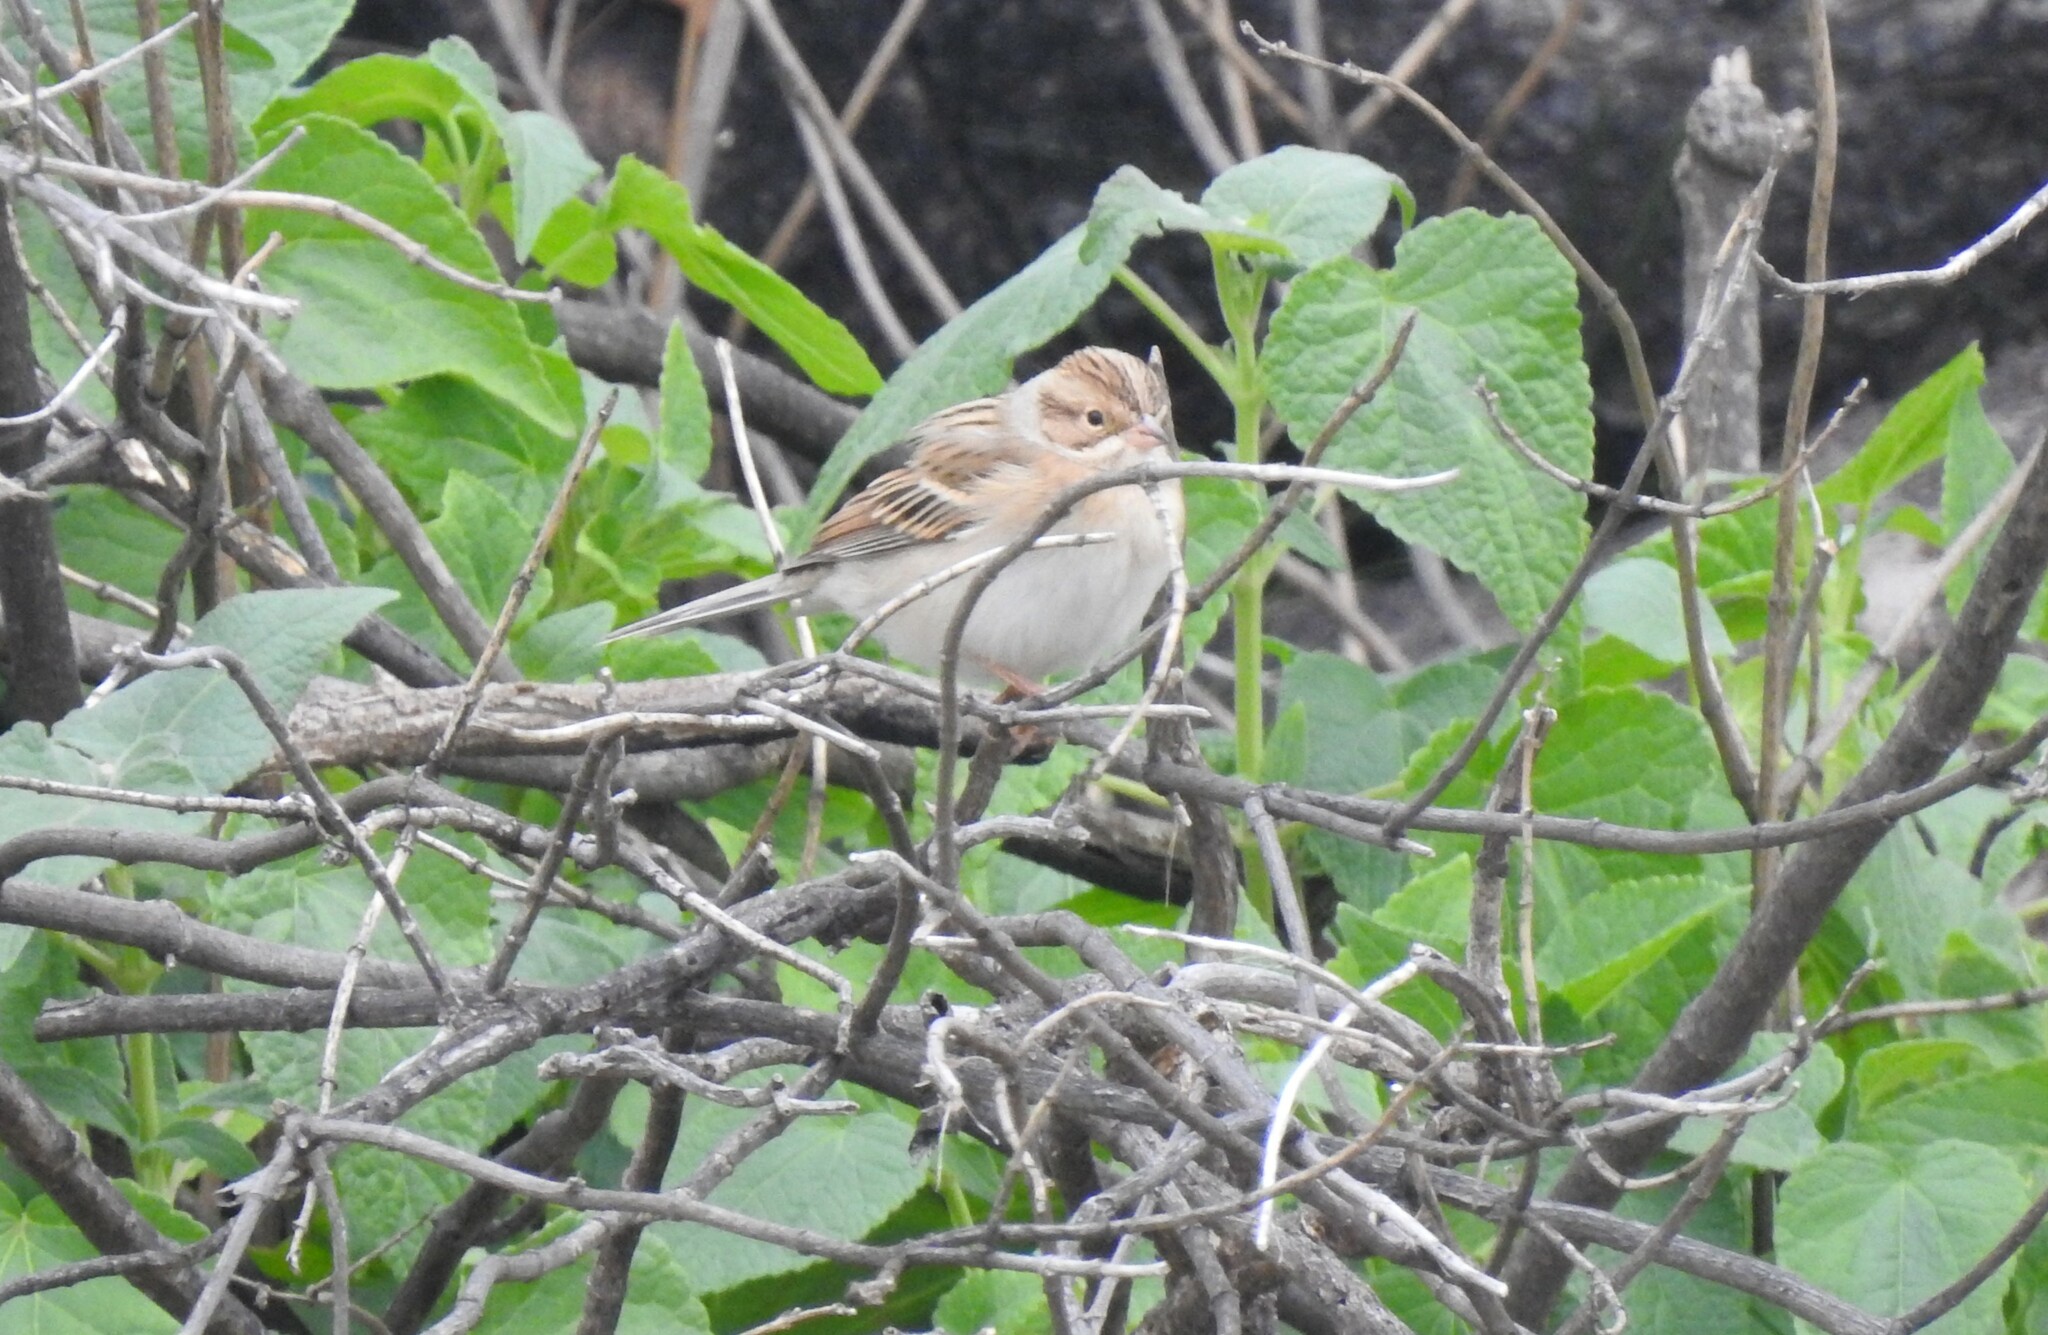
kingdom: Animalia
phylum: Chordata
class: Aves
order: Passeriformes
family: Passerellidae
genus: Spizella
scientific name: Spizella pallida
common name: Clay-colored sparrow
